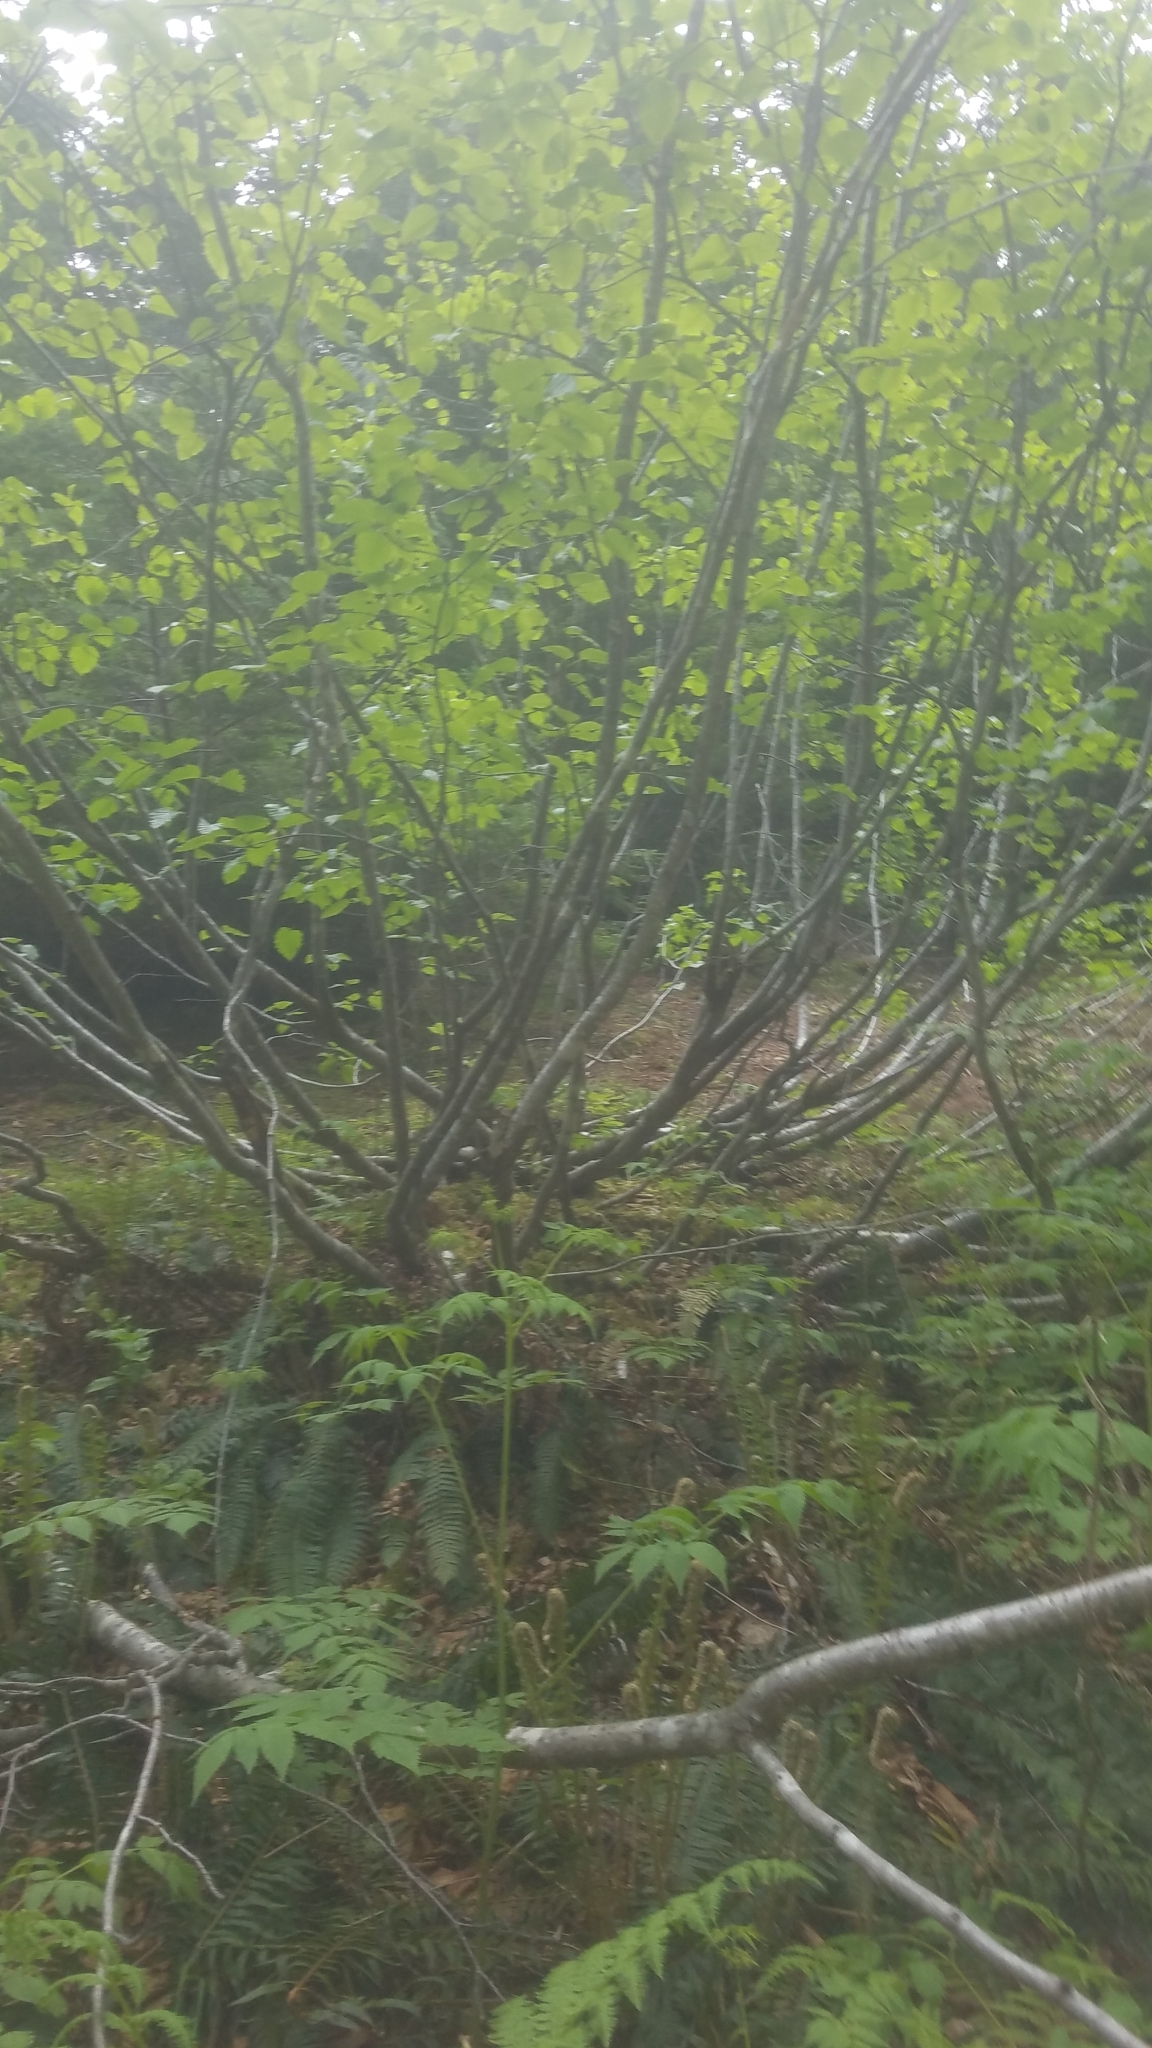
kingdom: Plantae
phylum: Tracheophyta
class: Magnoliopsida
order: Fagales
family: Betulaceae
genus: Alnus
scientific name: Alnus alnobetula
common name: Green alder
